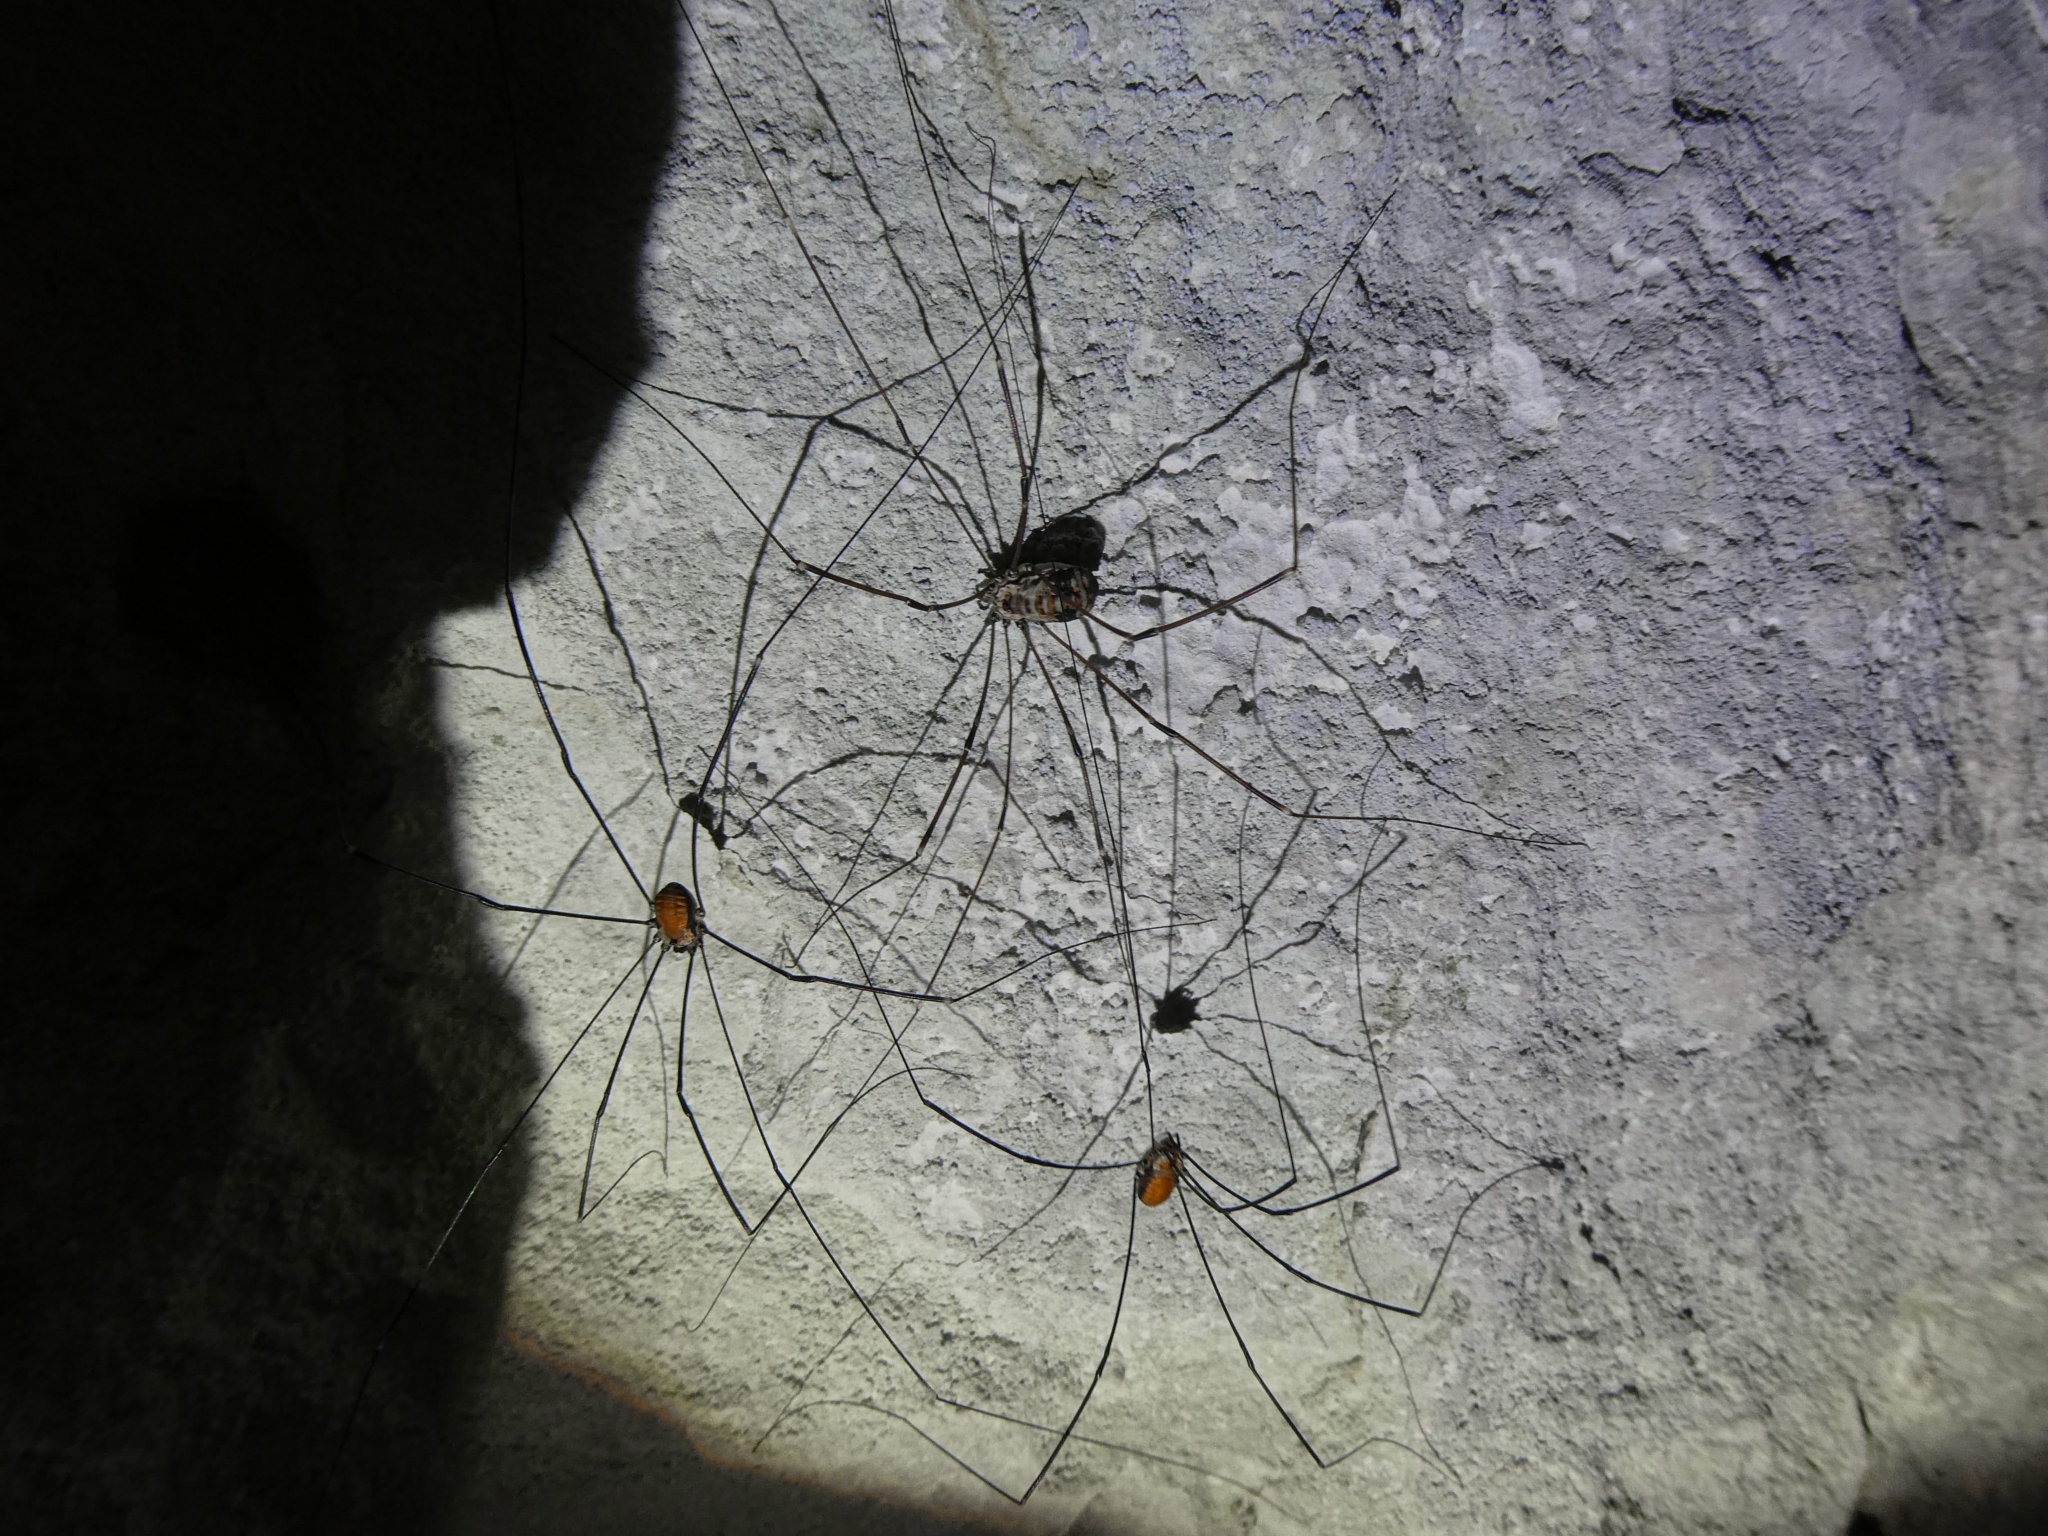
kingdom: Animalia
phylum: Arthropoda
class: Arachnida
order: Opiliones
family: Sclerosomatidae
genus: Leiobunum
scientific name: Leiobunum limbatum
